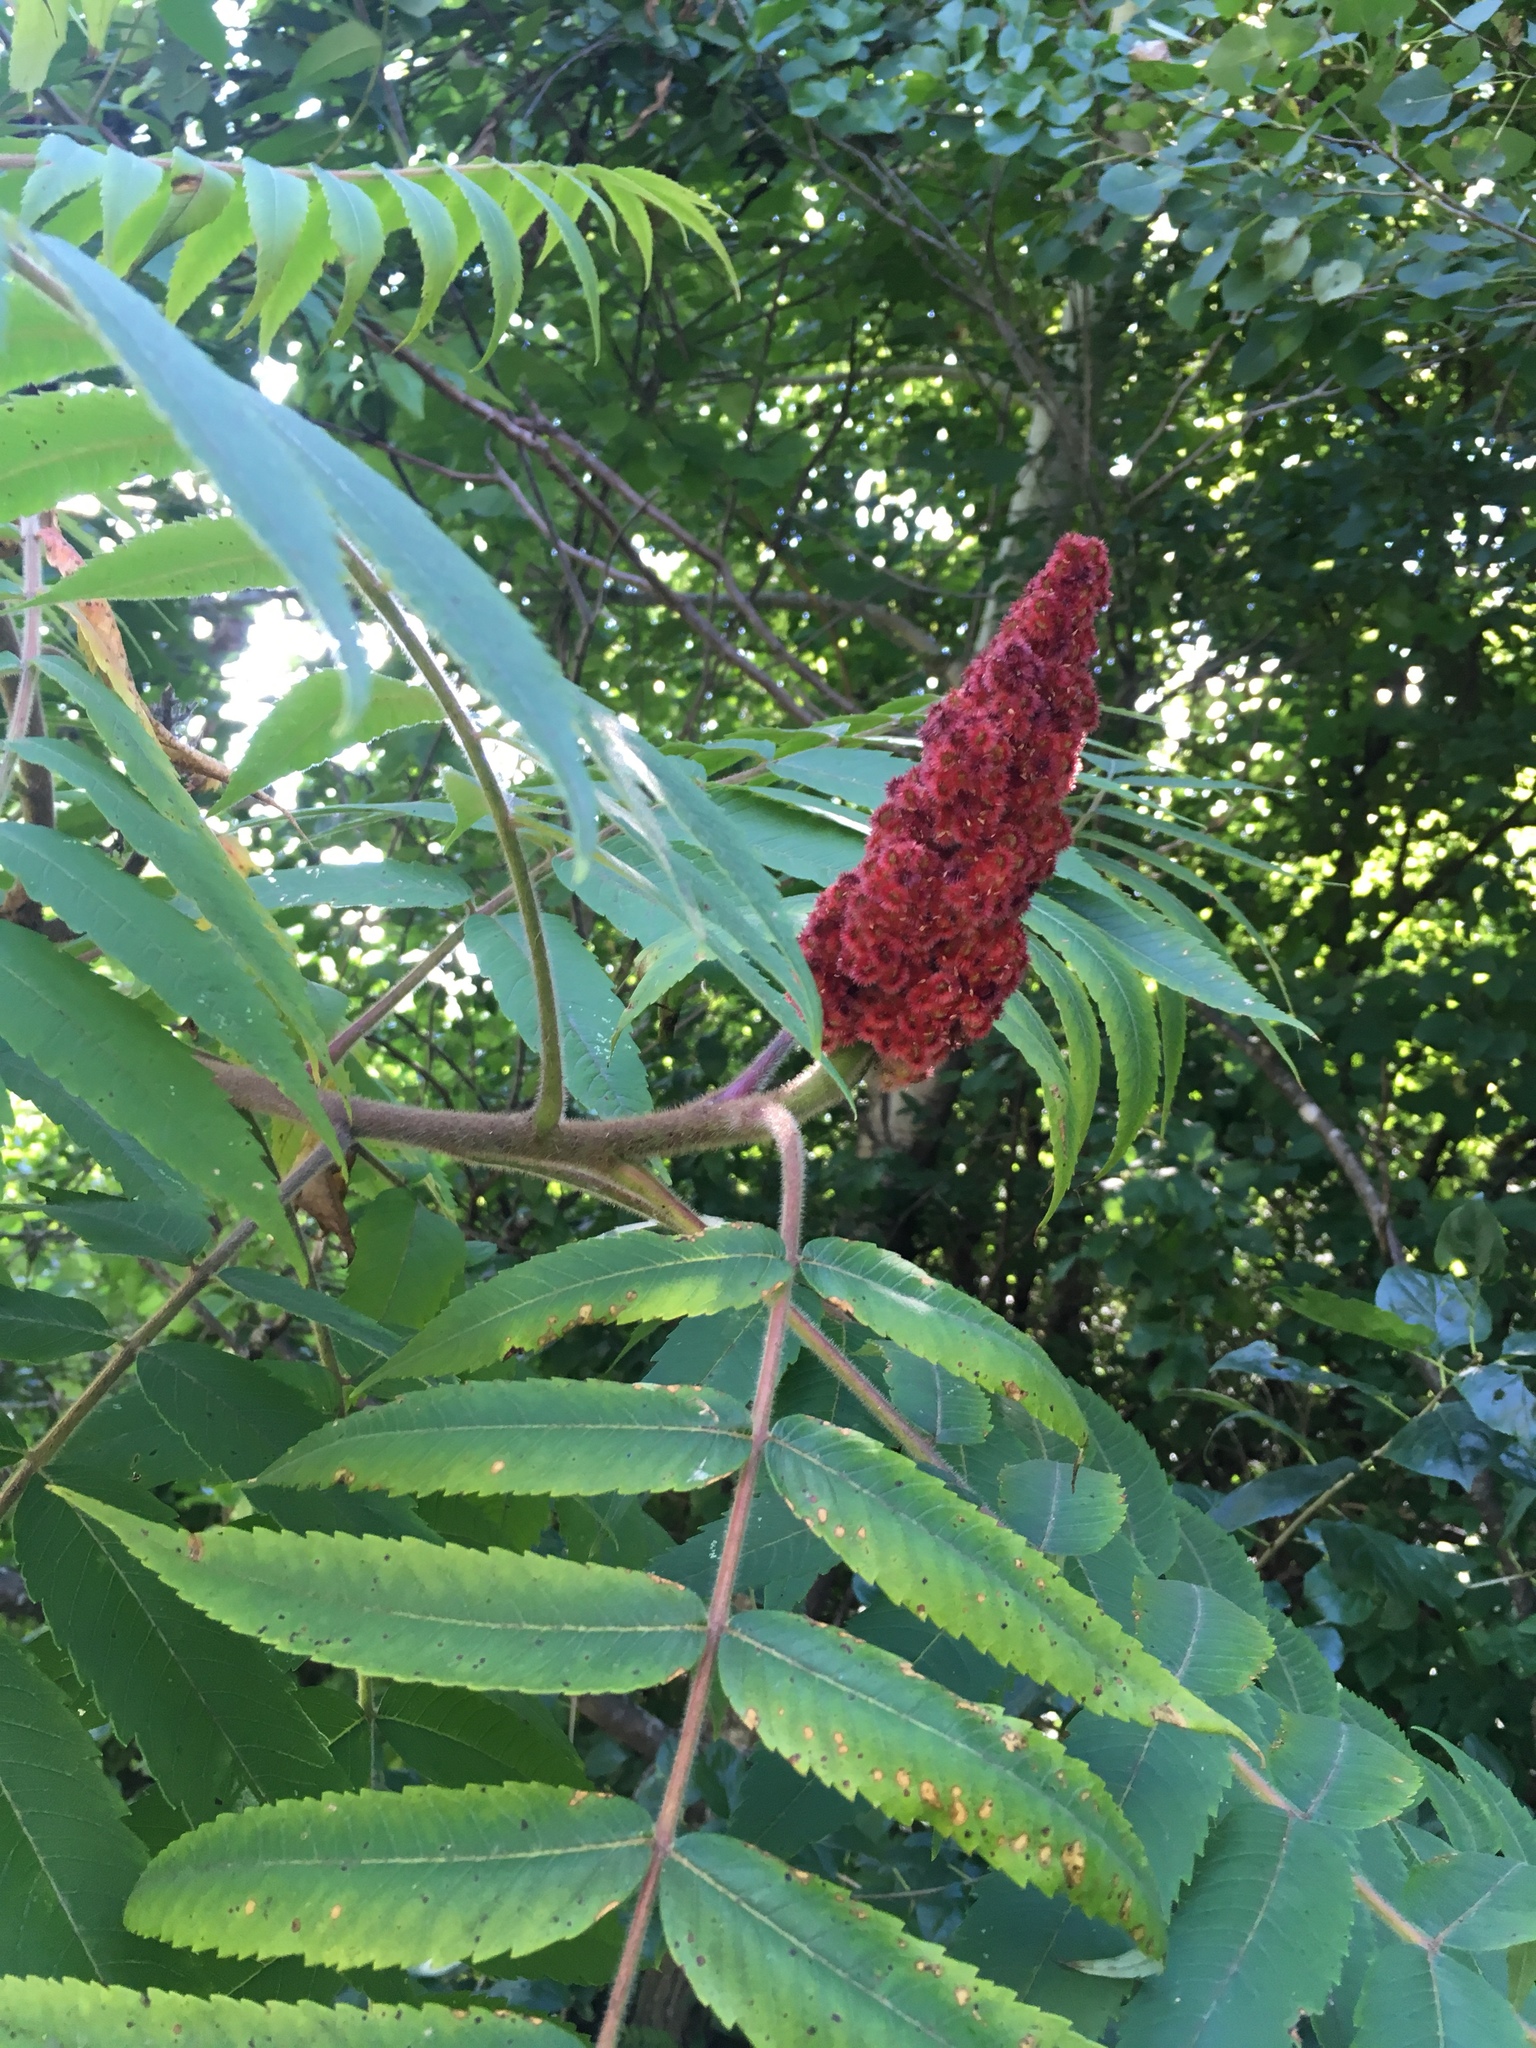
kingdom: Plantae
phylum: Tracheophyta
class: Magnoliopsida
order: Sapindales
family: Anacardiaceae
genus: Rhus
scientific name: Rhus typhina
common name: Staghorn sumac
